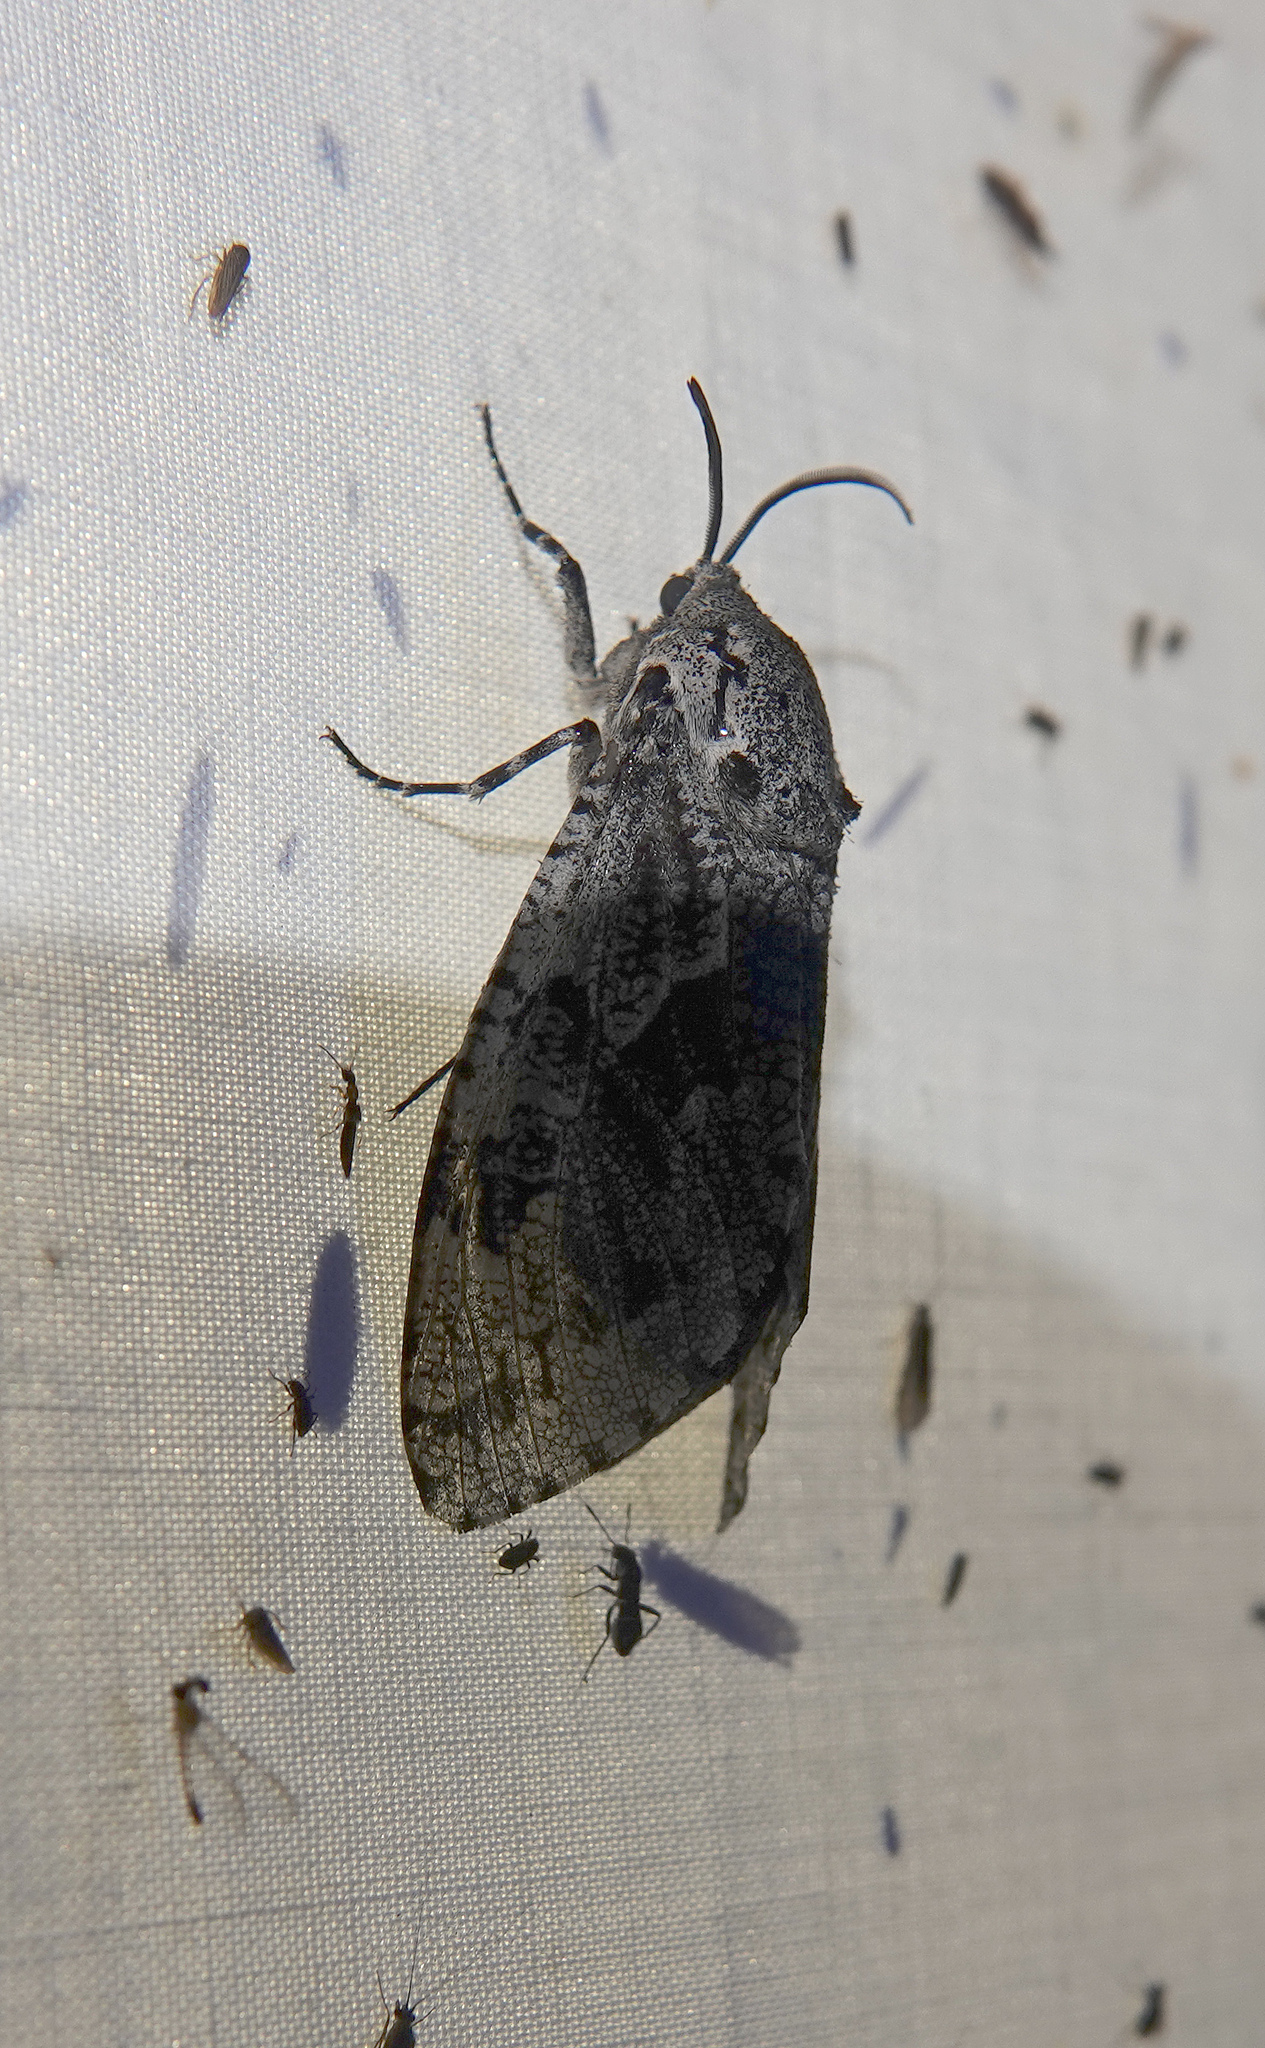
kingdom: Animalia
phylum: Arthropoda
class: Insecta
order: Lepidoptera
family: Cossidae
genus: Prionoxystus
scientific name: Prionoxystus robiniae
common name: Carpenterworm
